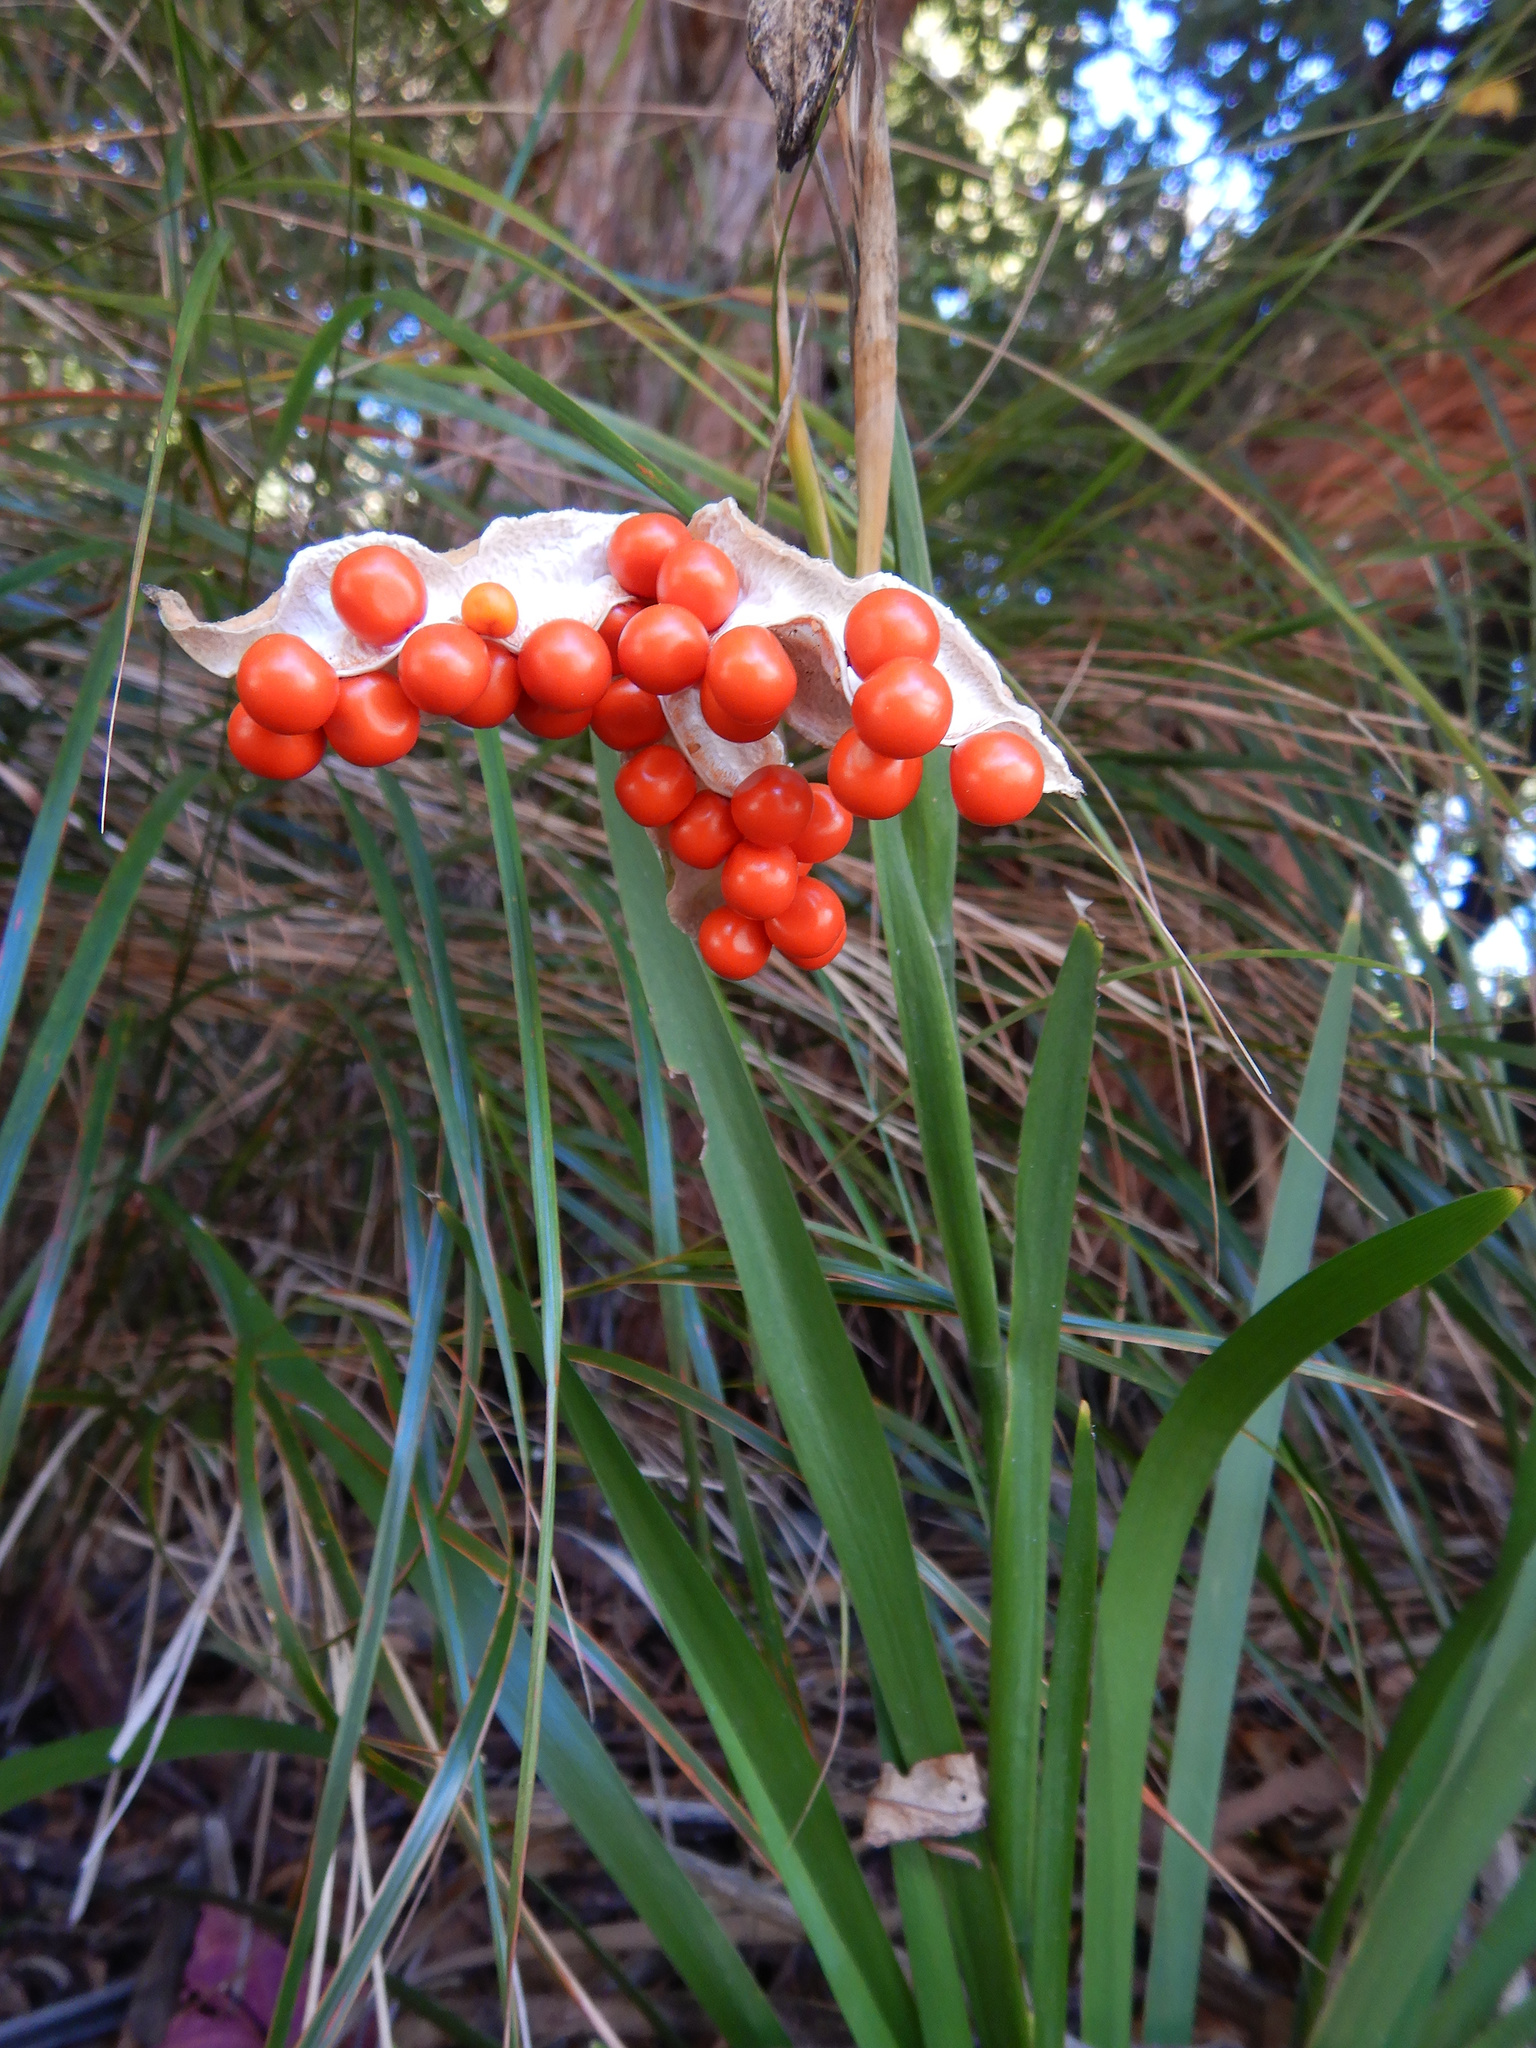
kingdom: Plantae
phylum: Tracheophyta
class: Liliopsida
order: Asparagales
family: Iridaceae
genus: Iris
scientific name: Iris foetidissima
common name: Stinking iris
